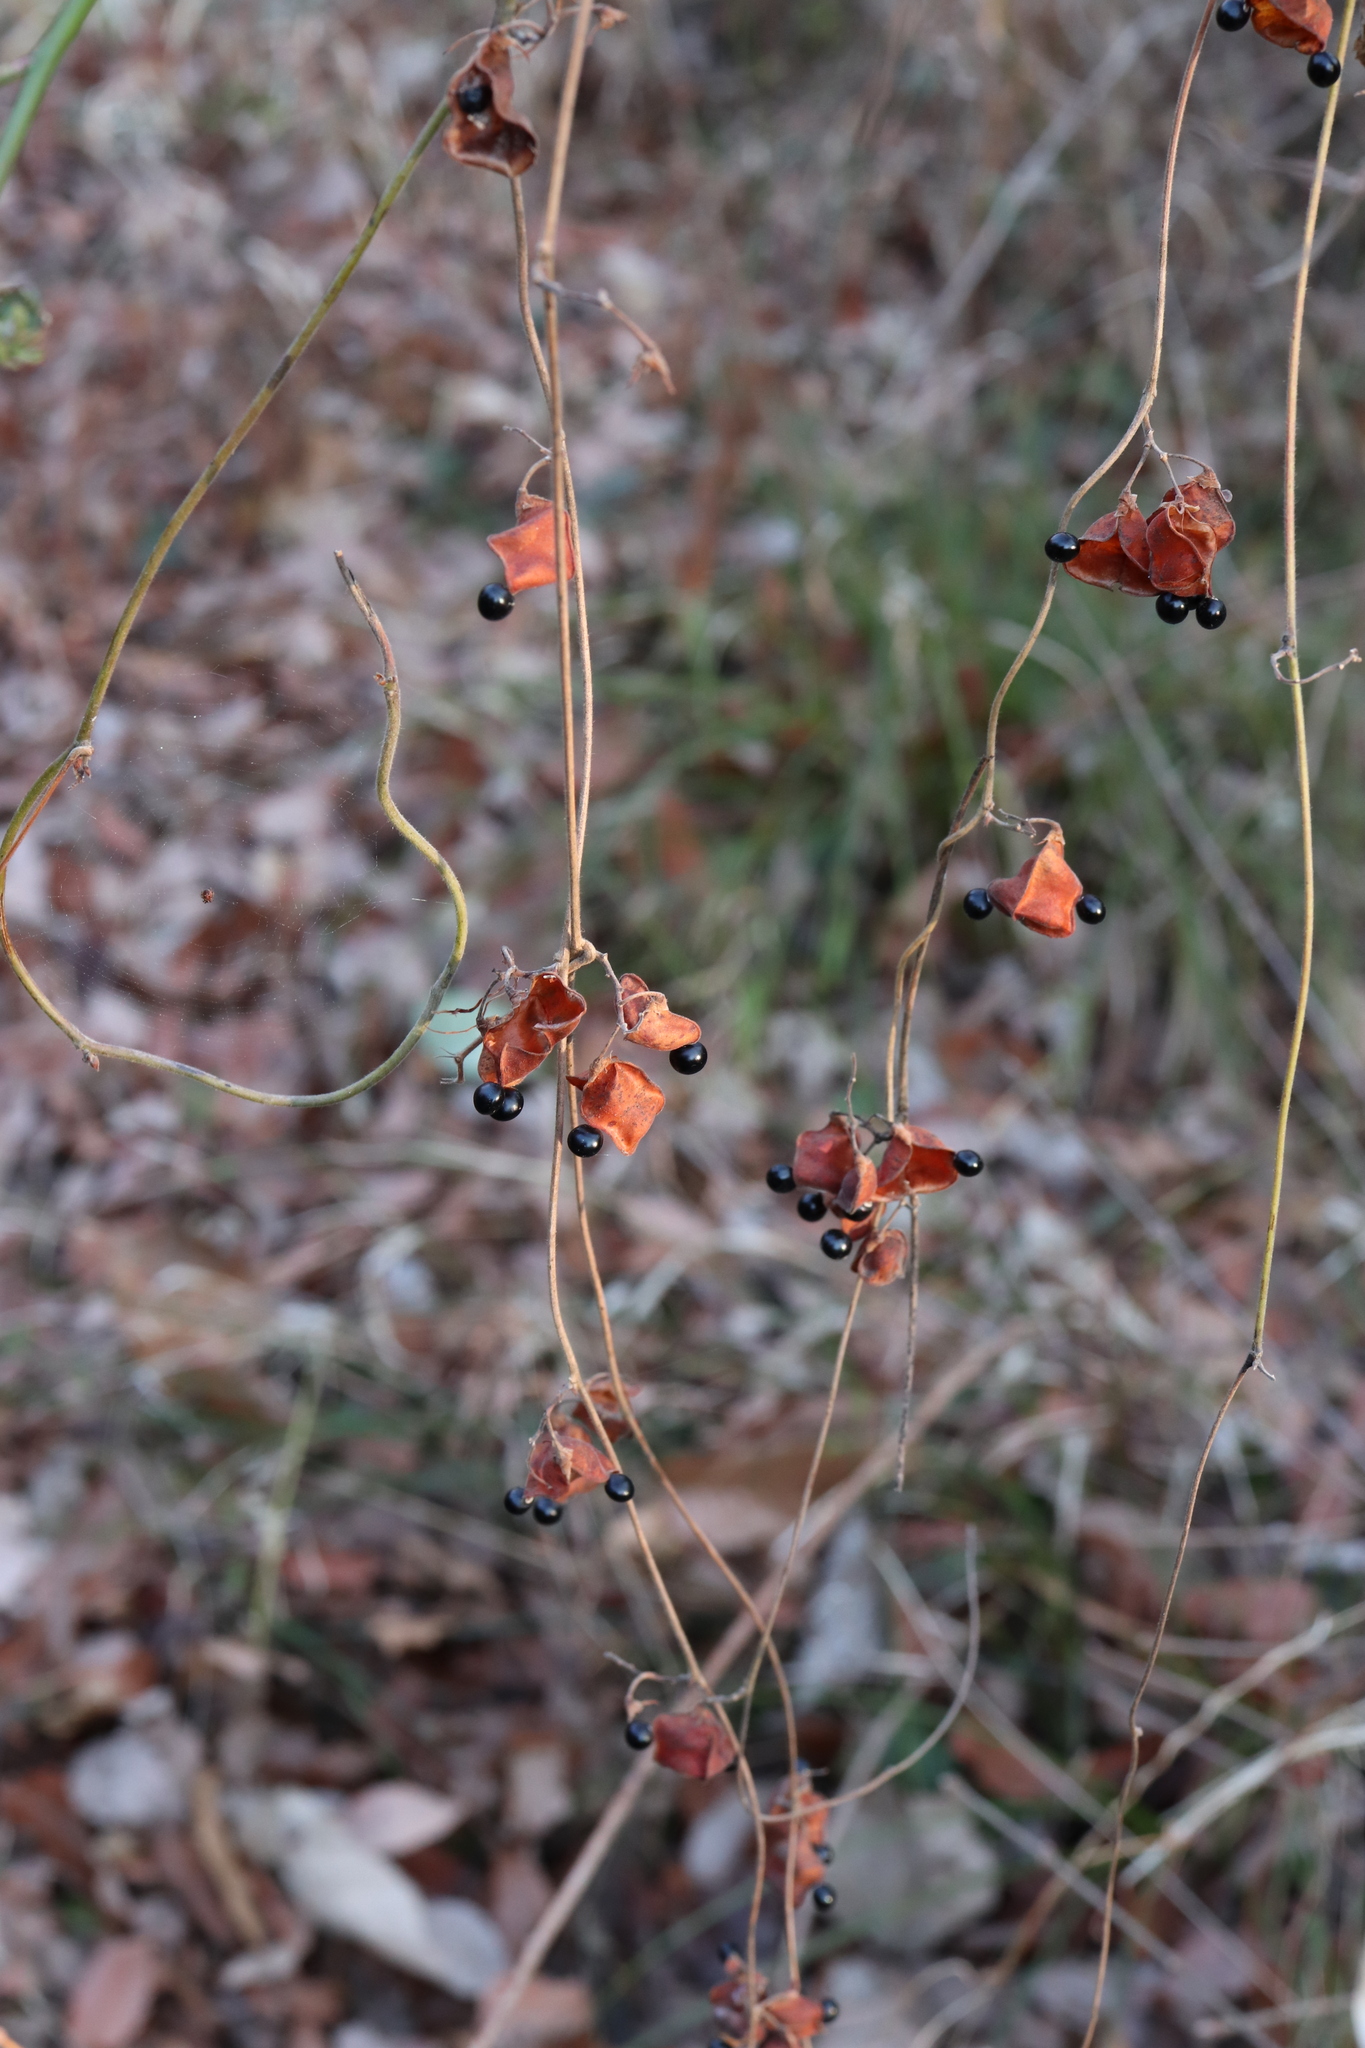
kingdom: Plantae
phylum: Tracheophyta
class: Magnoliopsida
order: Fabales
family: Fabaceae
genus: Rhynchosia
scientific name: Rhynchosia volubilis
